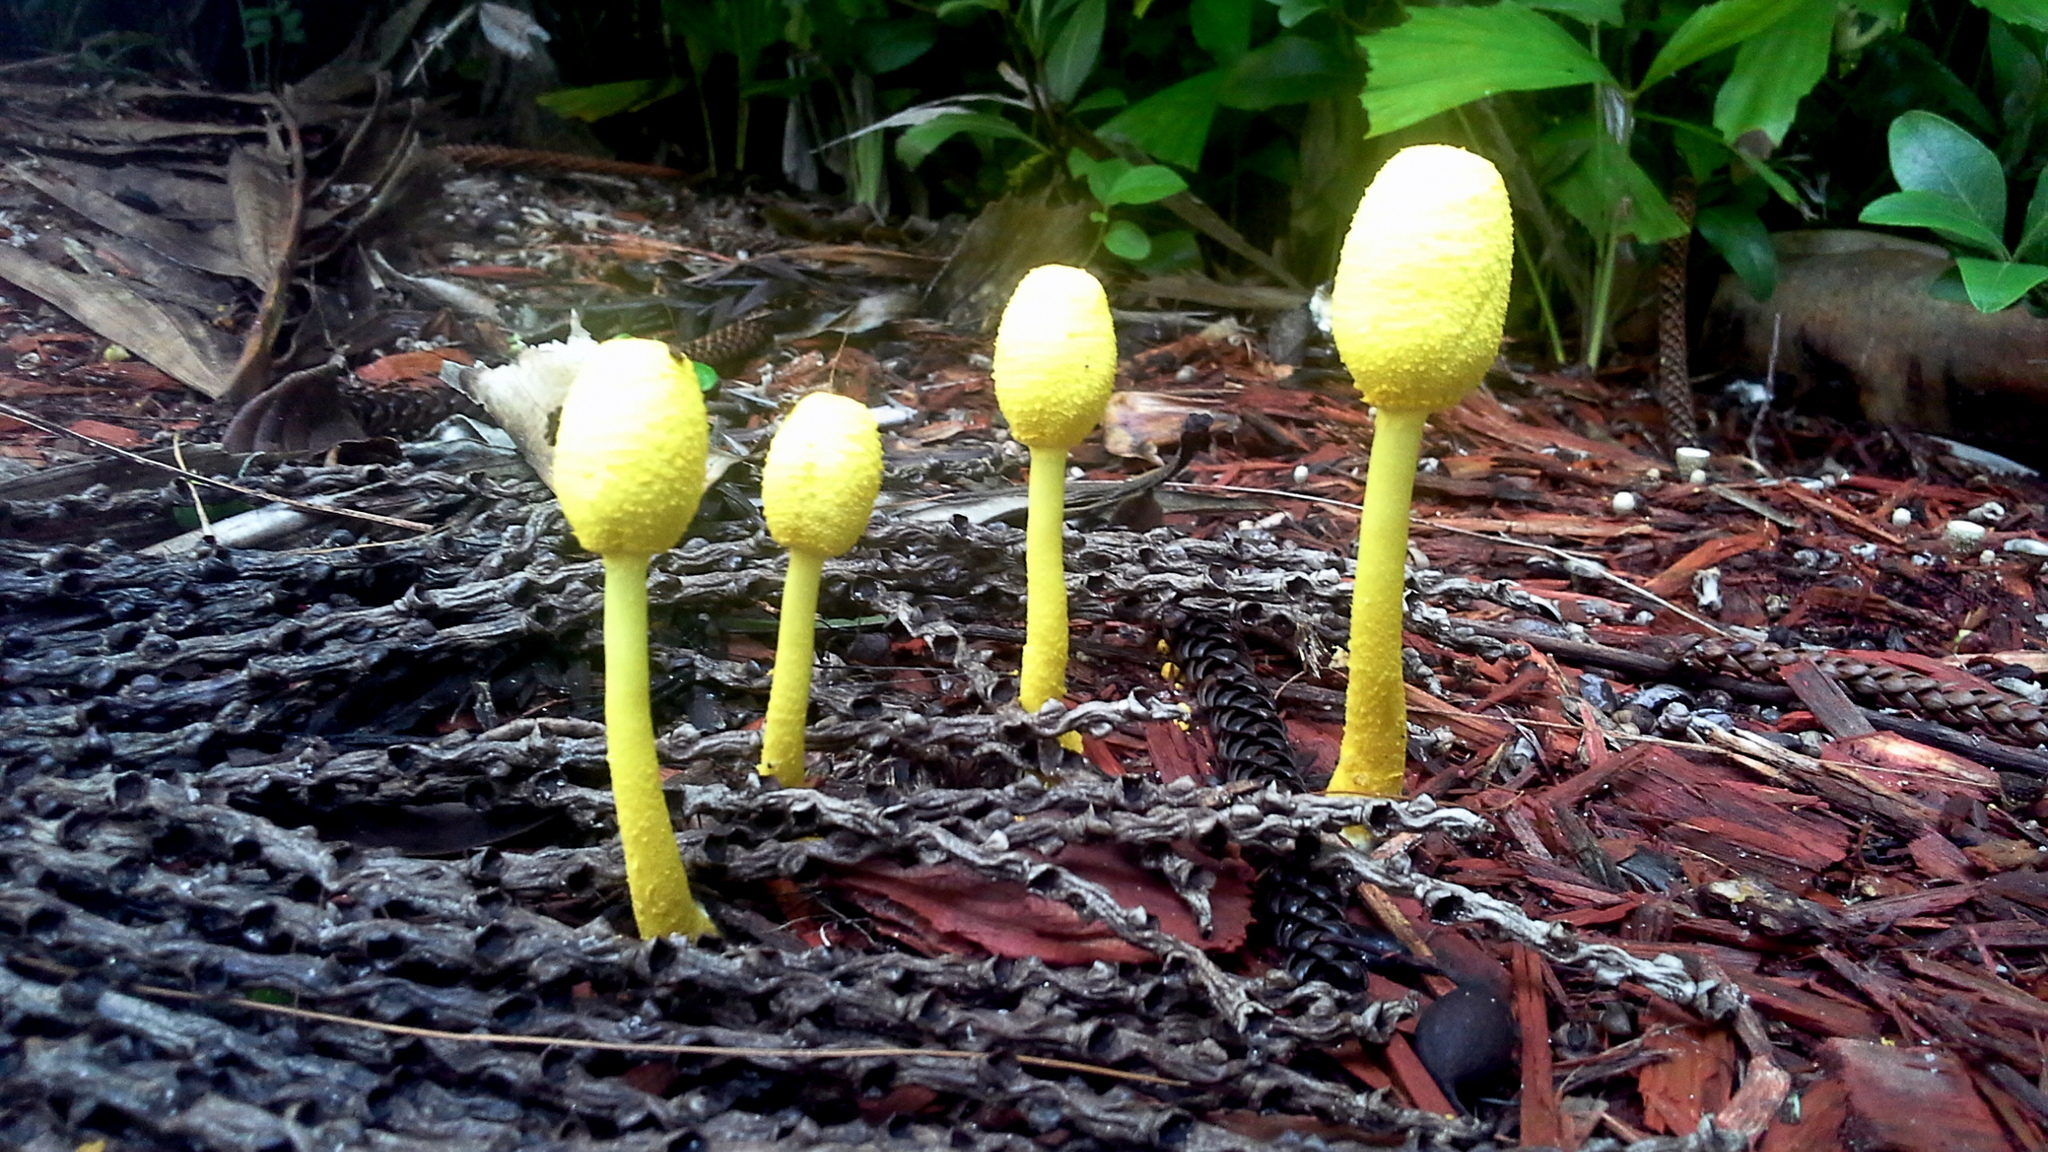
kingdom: Fungi
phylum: Basidiomycota
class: Agaricomycetes
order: Agaricales
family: Agaricaceae
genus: Leucocoprinus
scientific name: Leucocoprinus birnbaumii
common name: Plantpot dapperling
